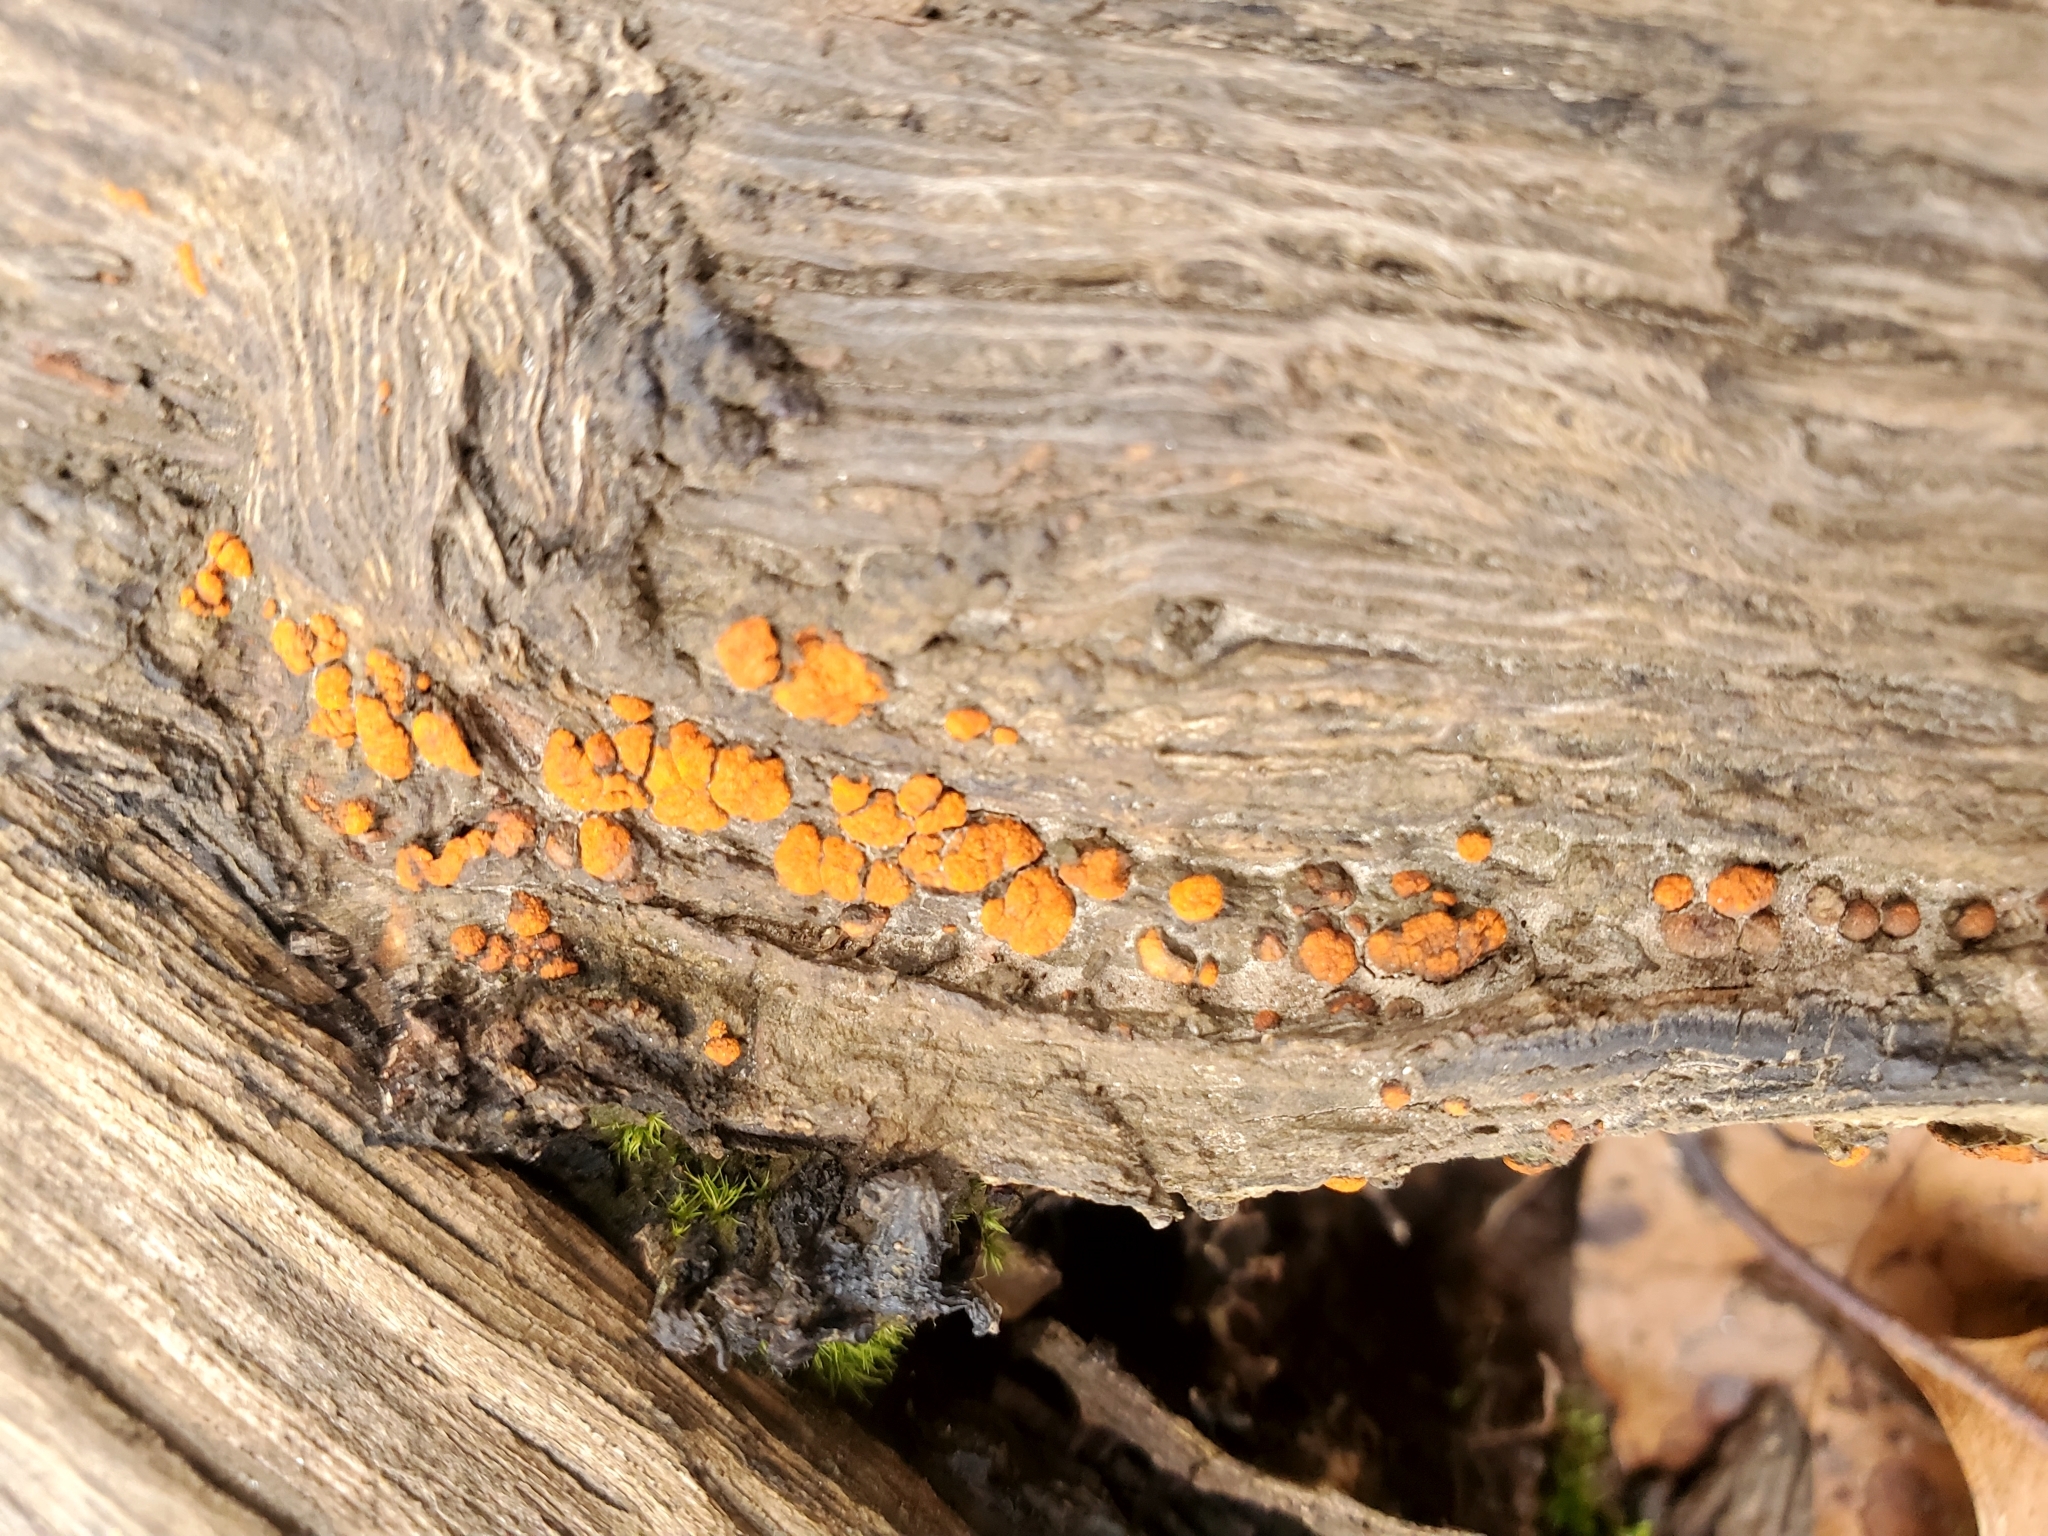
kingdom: Fungi
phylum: Ascomycota
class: Sordariomycetes
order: Diaporthales
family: Cryphonectriaceae
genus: Amphilogia
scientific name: Amphilogia gyrosa
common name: Orange hobnail canker
